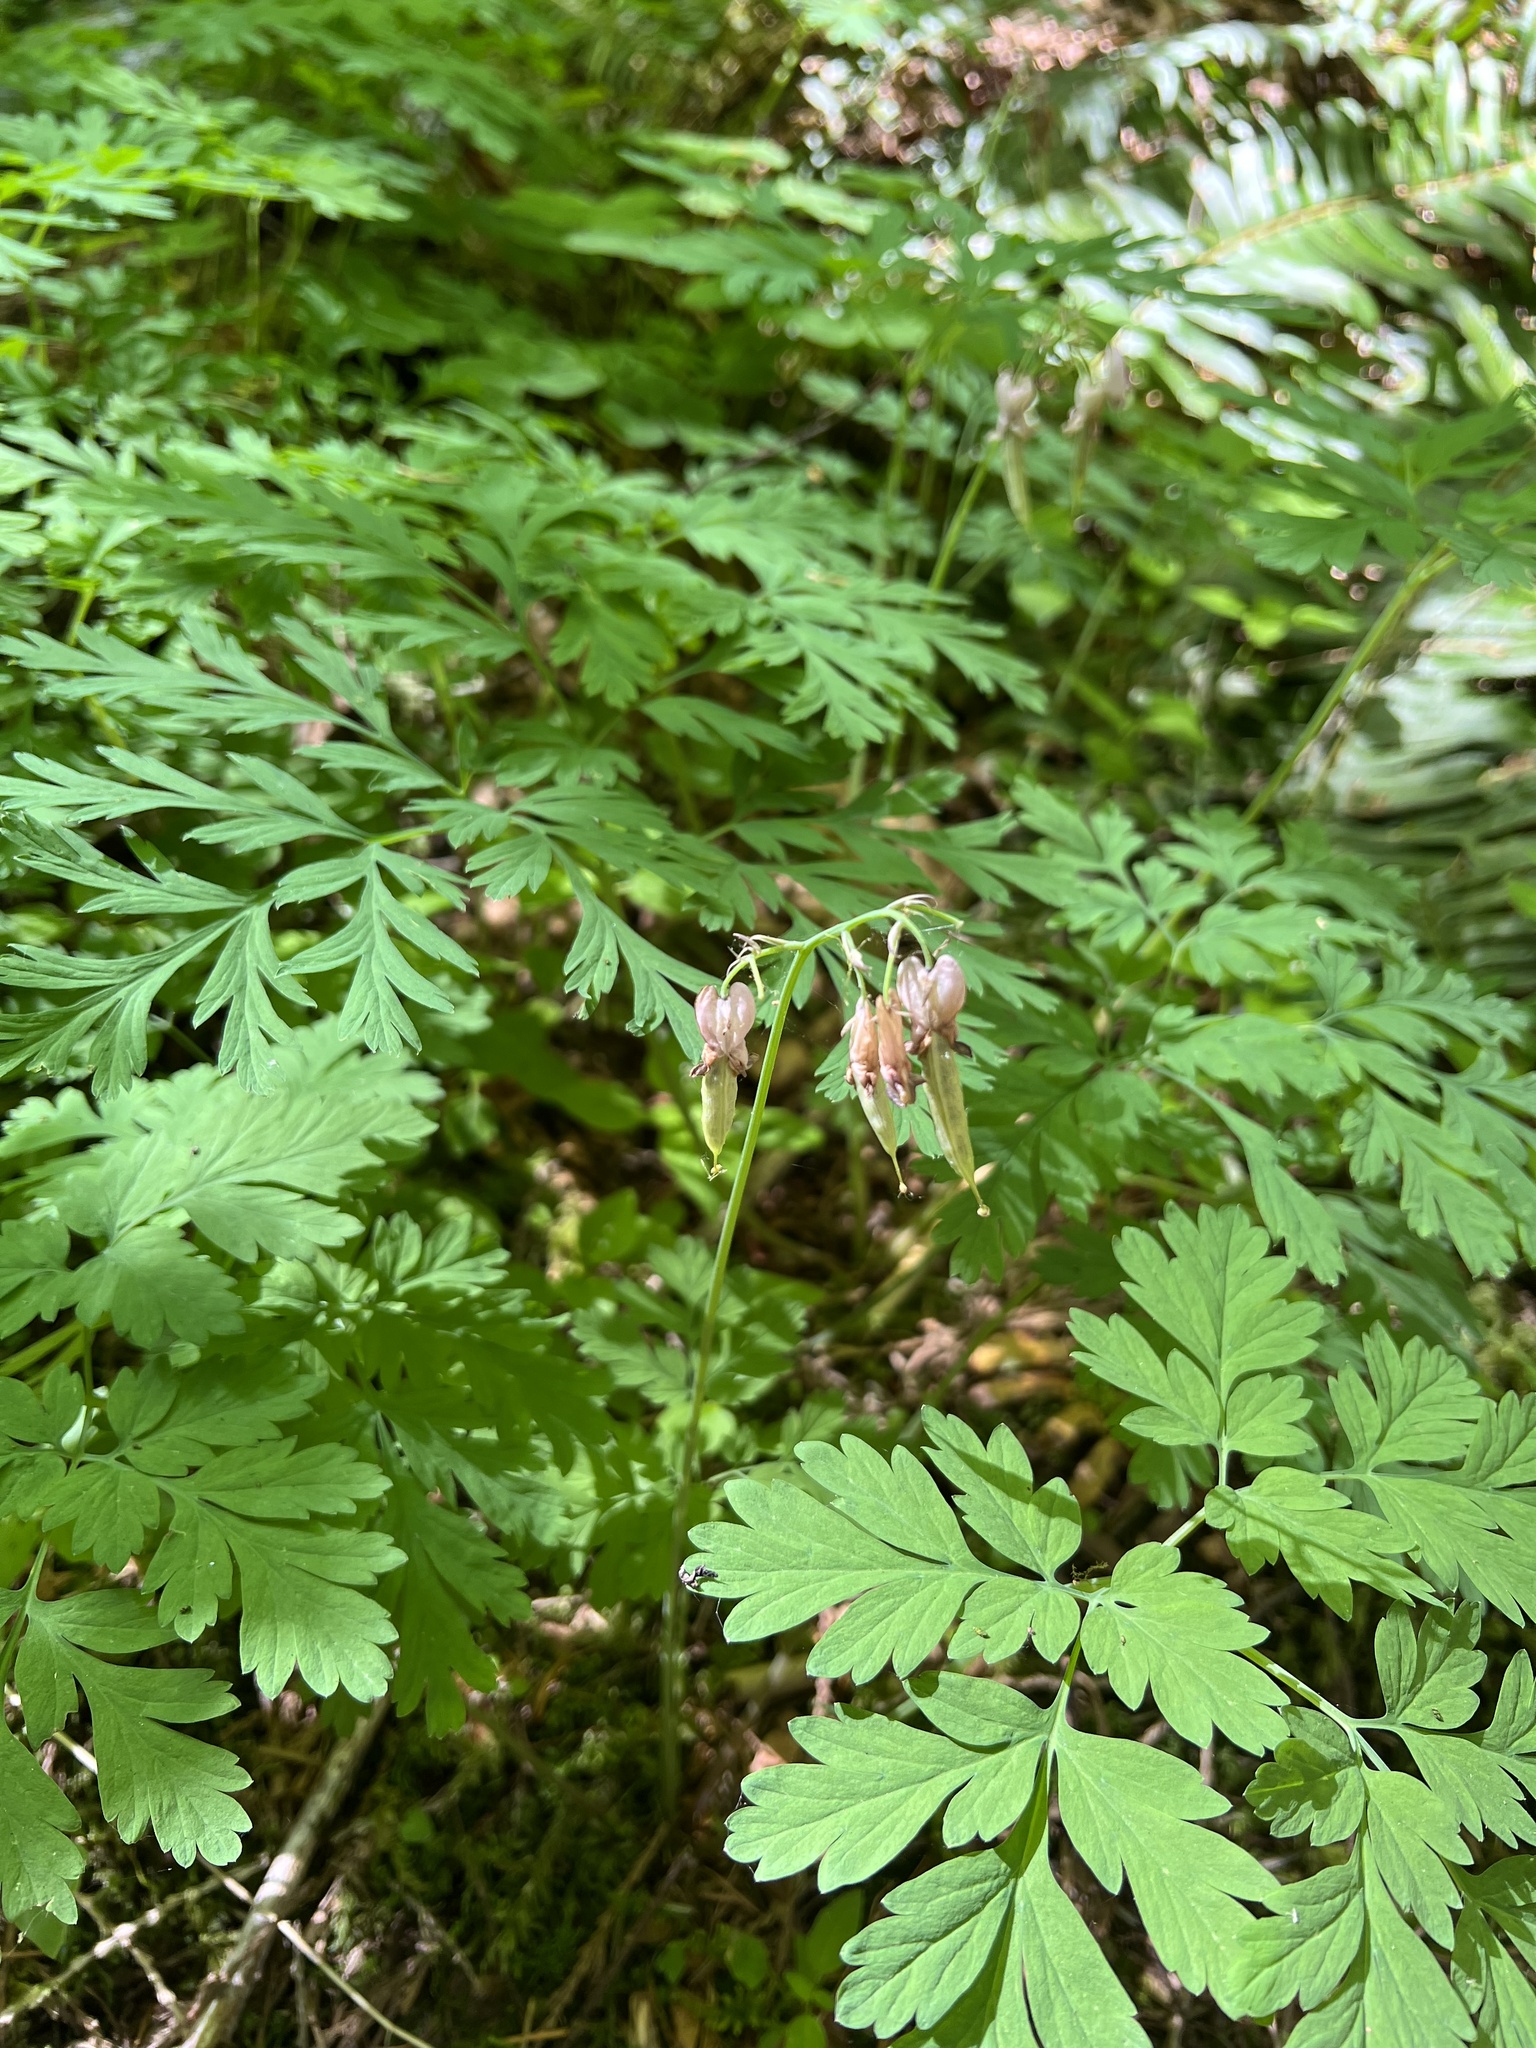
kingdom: Plantae
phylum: Tracheophyta
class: Magnoliopsida
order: Ranunculales
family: Papaveraceae
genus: Dicentra
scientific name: Dicentra formosa
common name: Bleeding-heart
